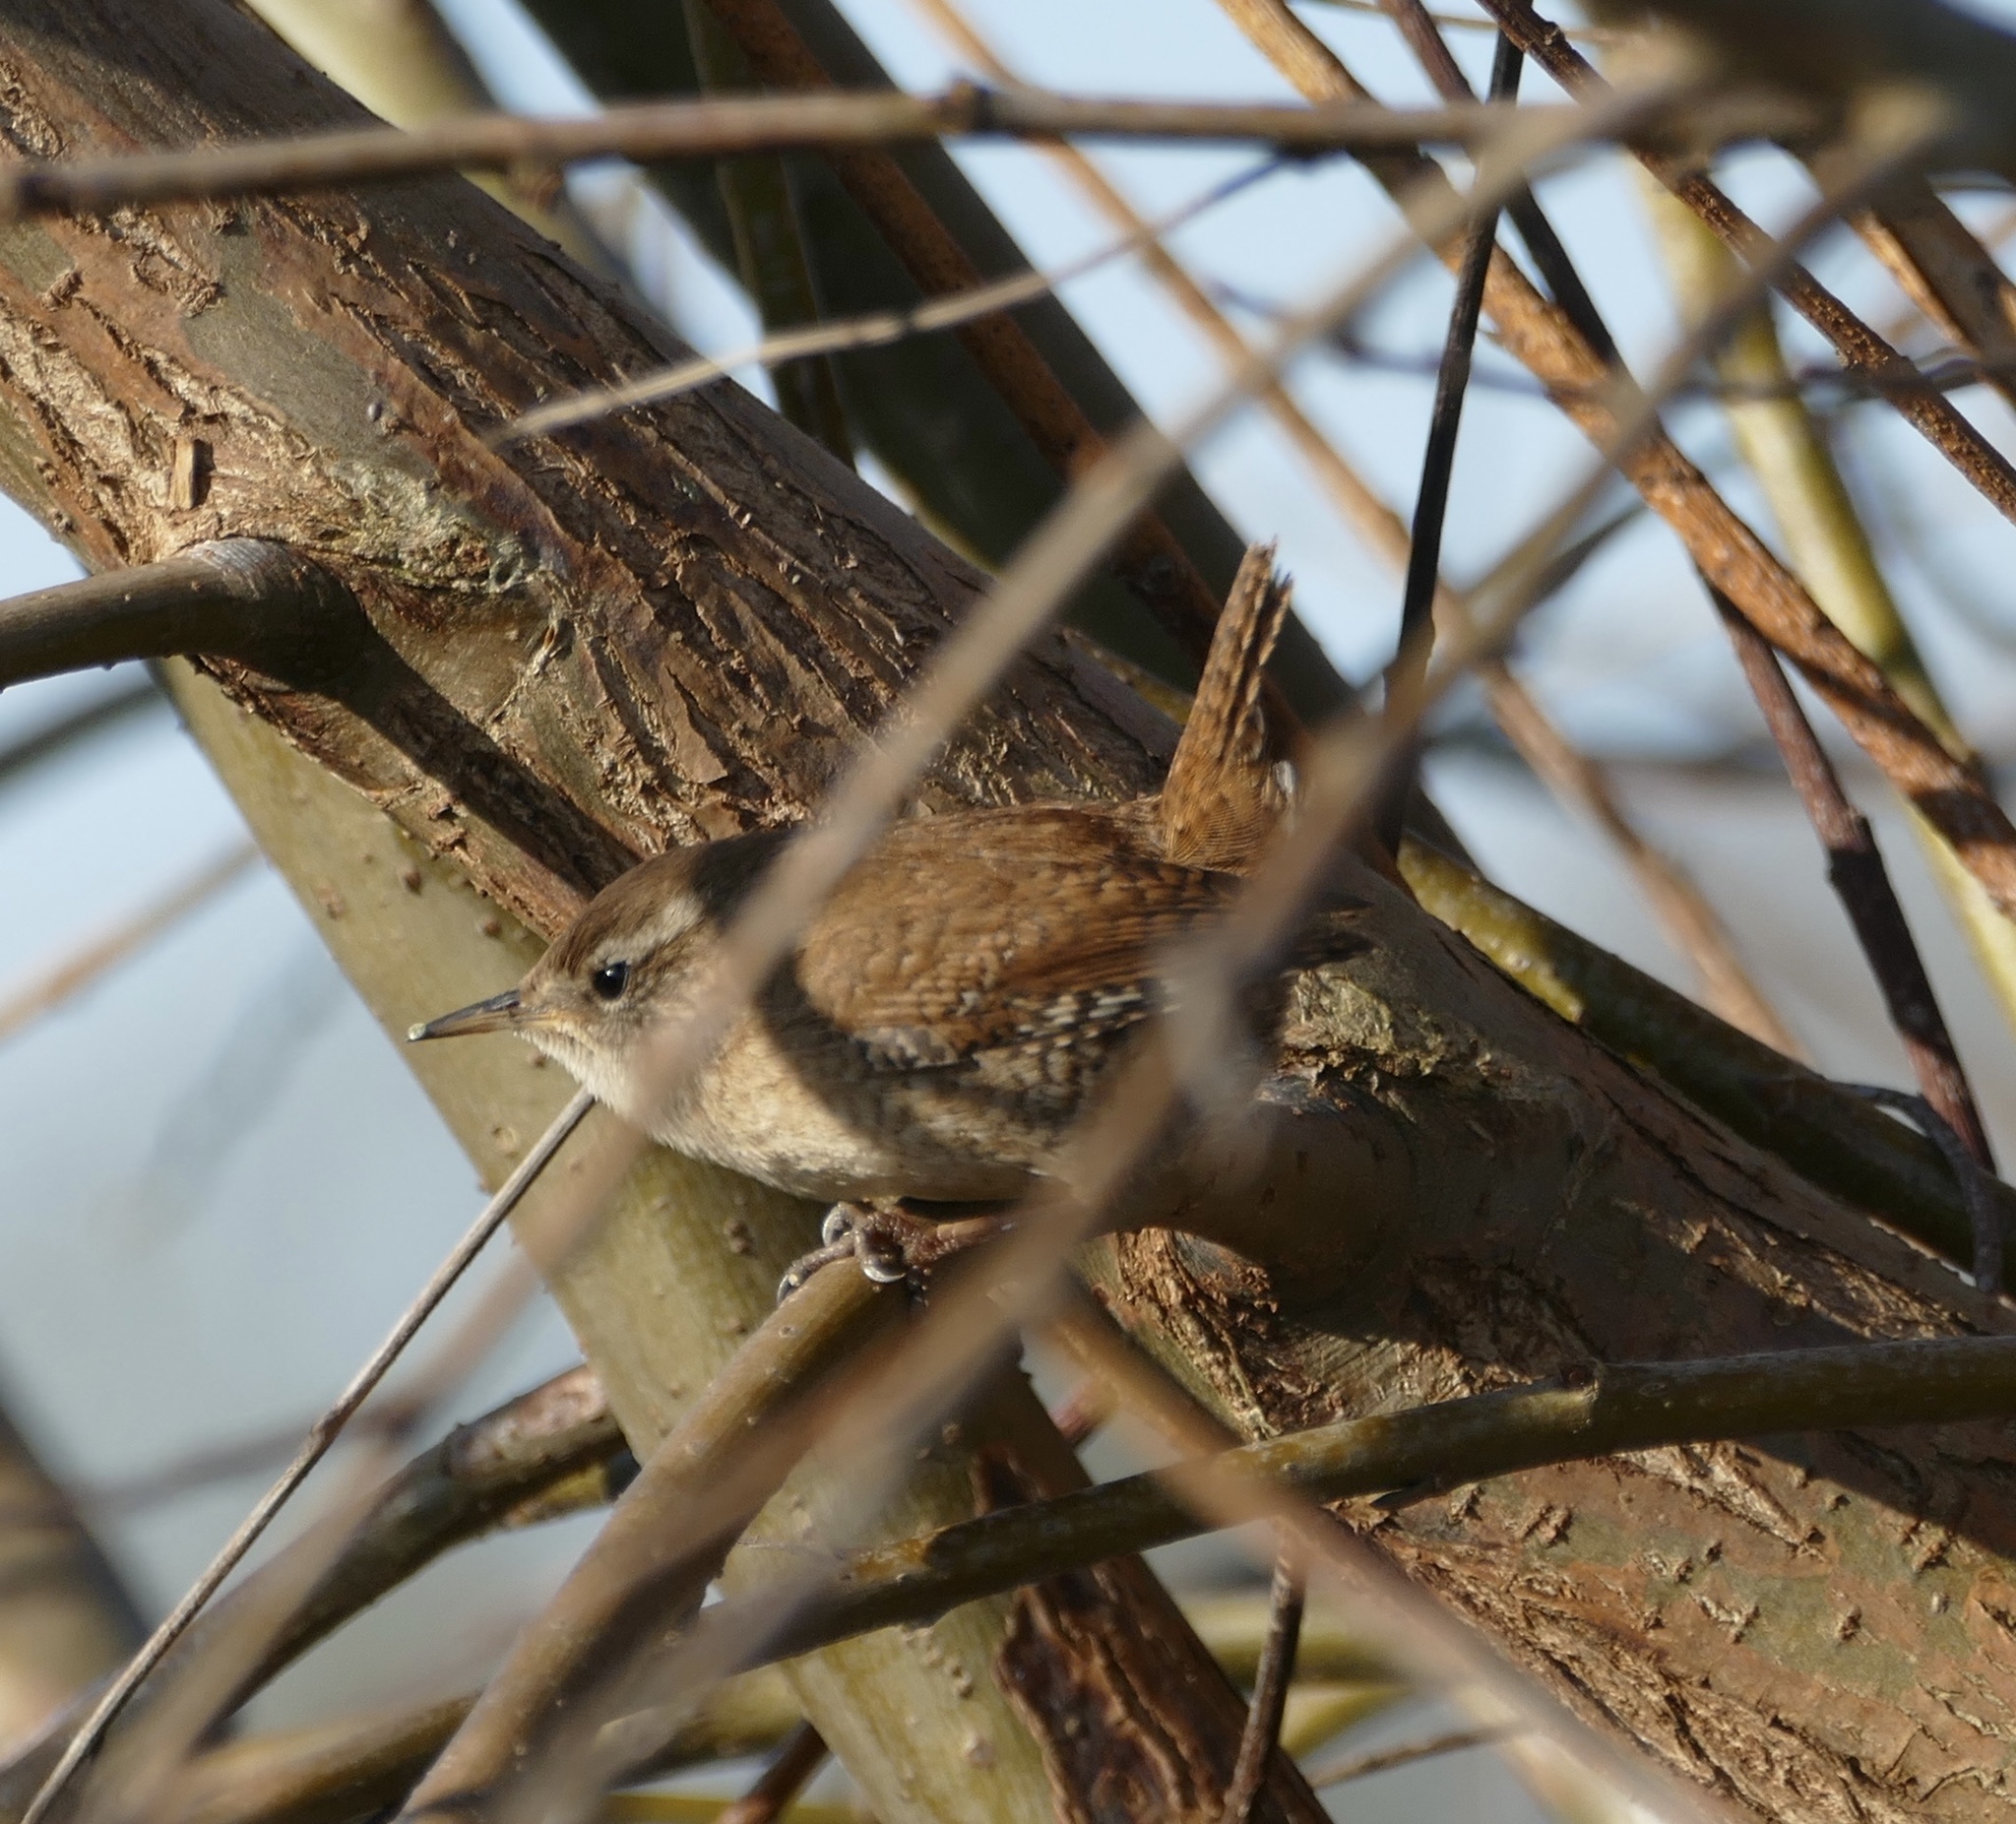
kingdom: Animalia
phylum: Chordata
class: Aves
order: Passeriformes
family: Troglodytidae
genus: Troglodytes
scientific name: Troglodytes troglodytes
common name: Eurasian wren
